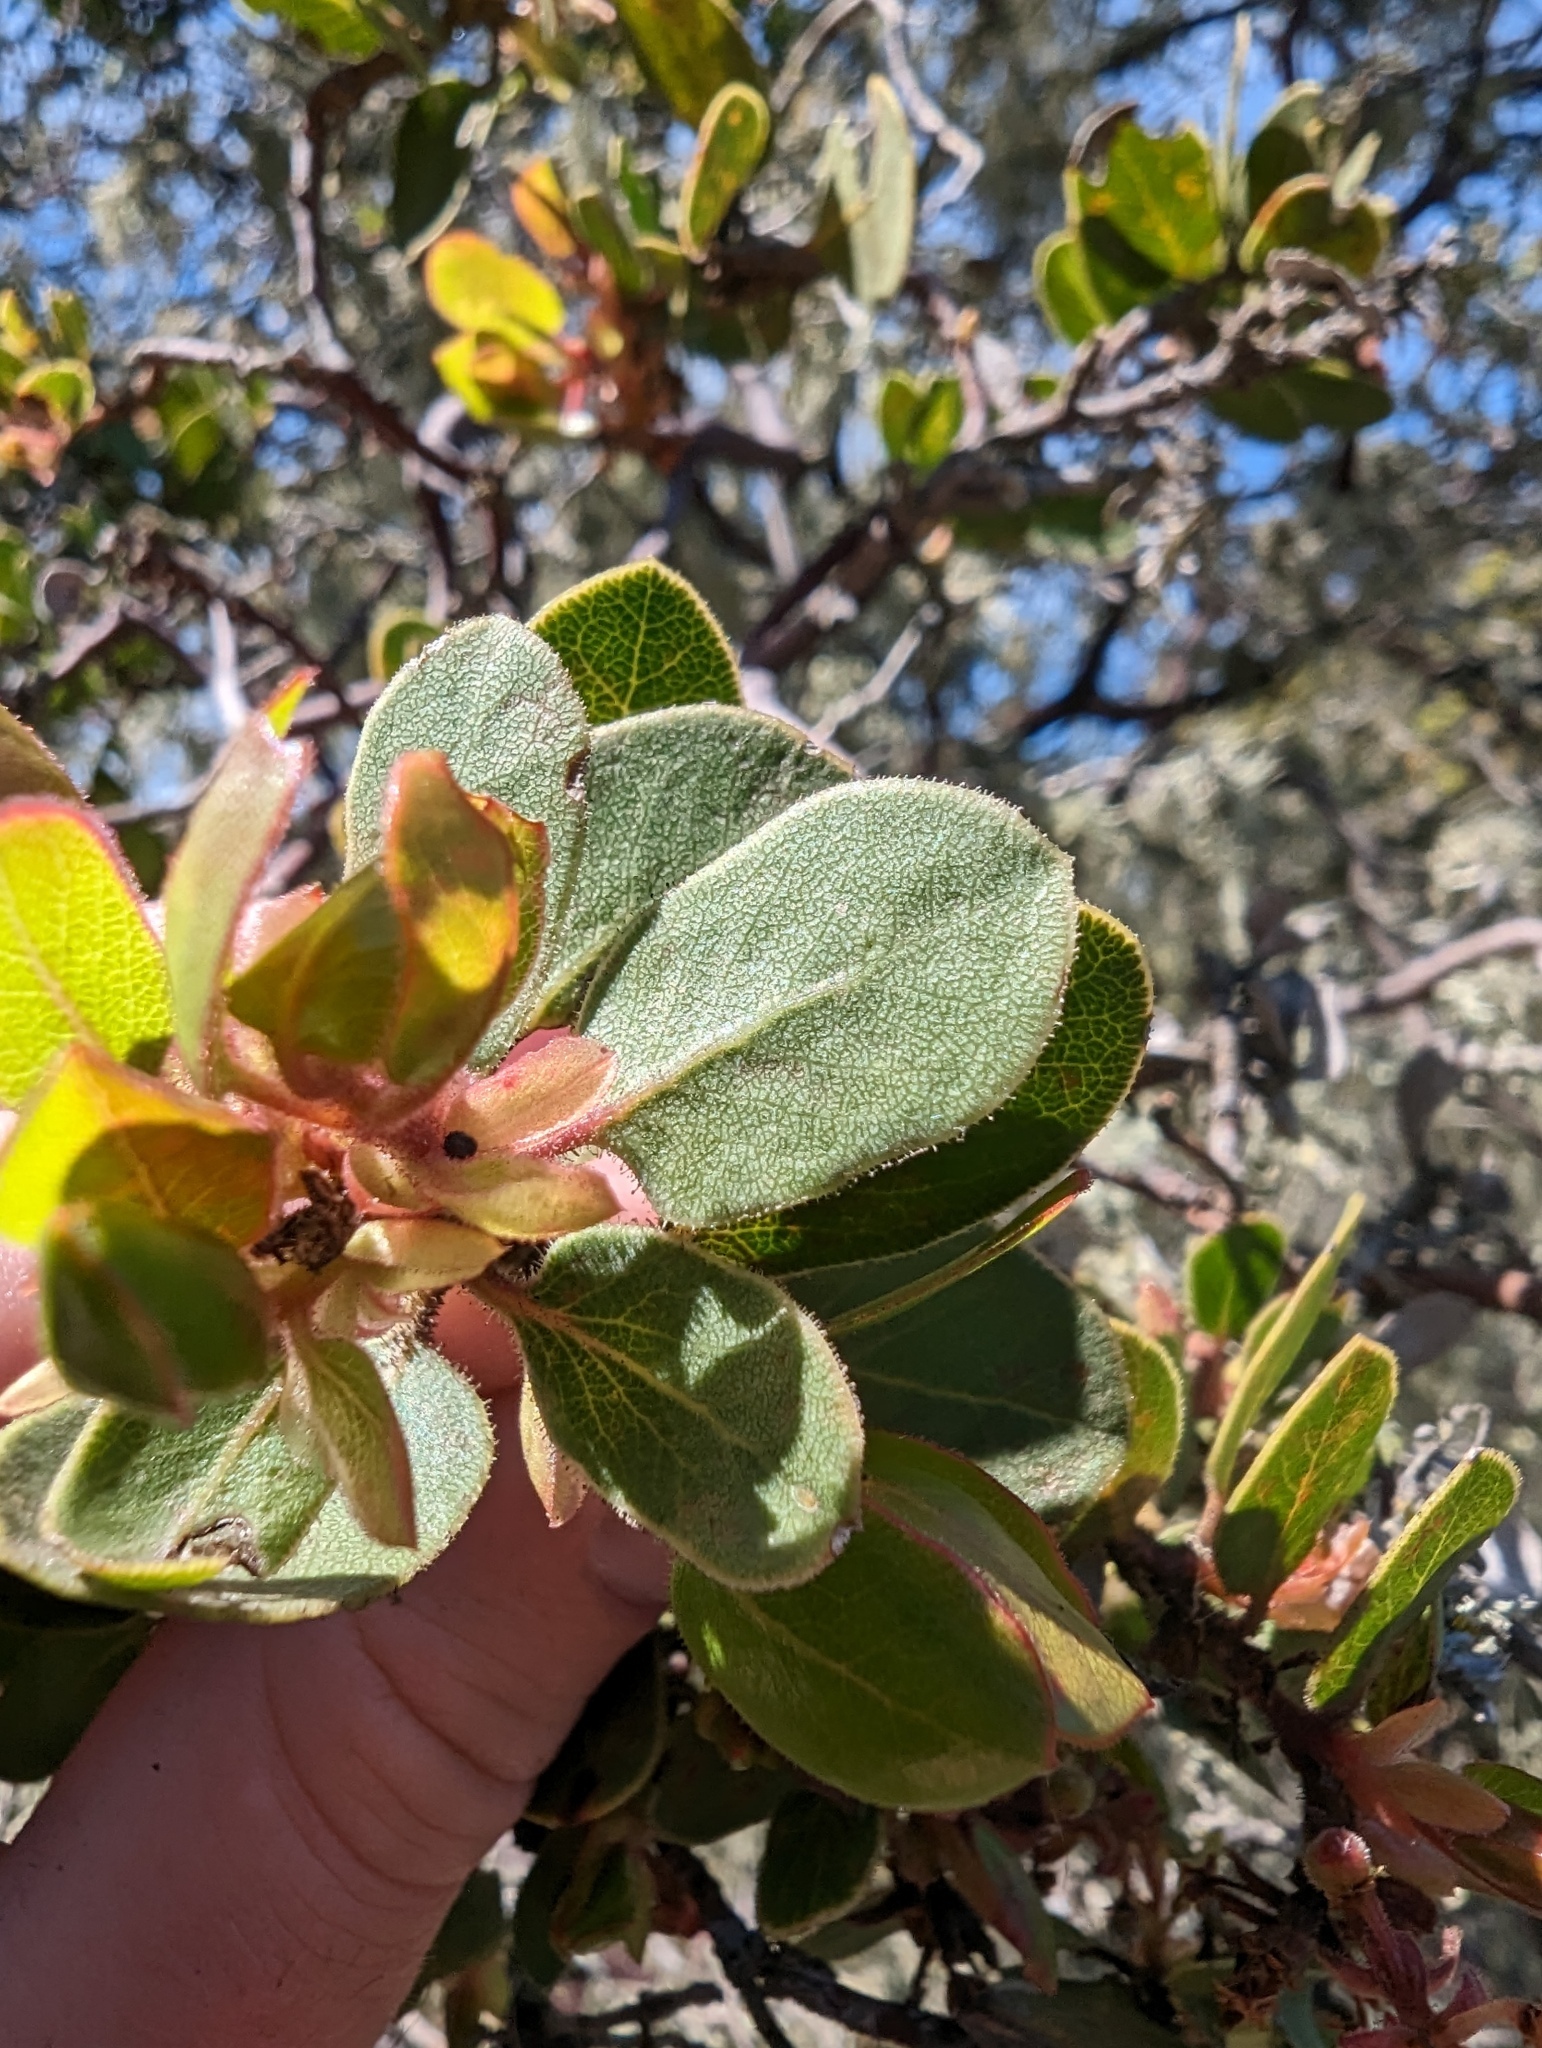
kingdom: Plantae
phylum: Tracheophyta
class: Magnoliopsida
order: Ericales
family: Ericaceae
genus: Arctostaphylos
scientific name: Arctostaphylos montereyensis
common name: Monterey manzanita
